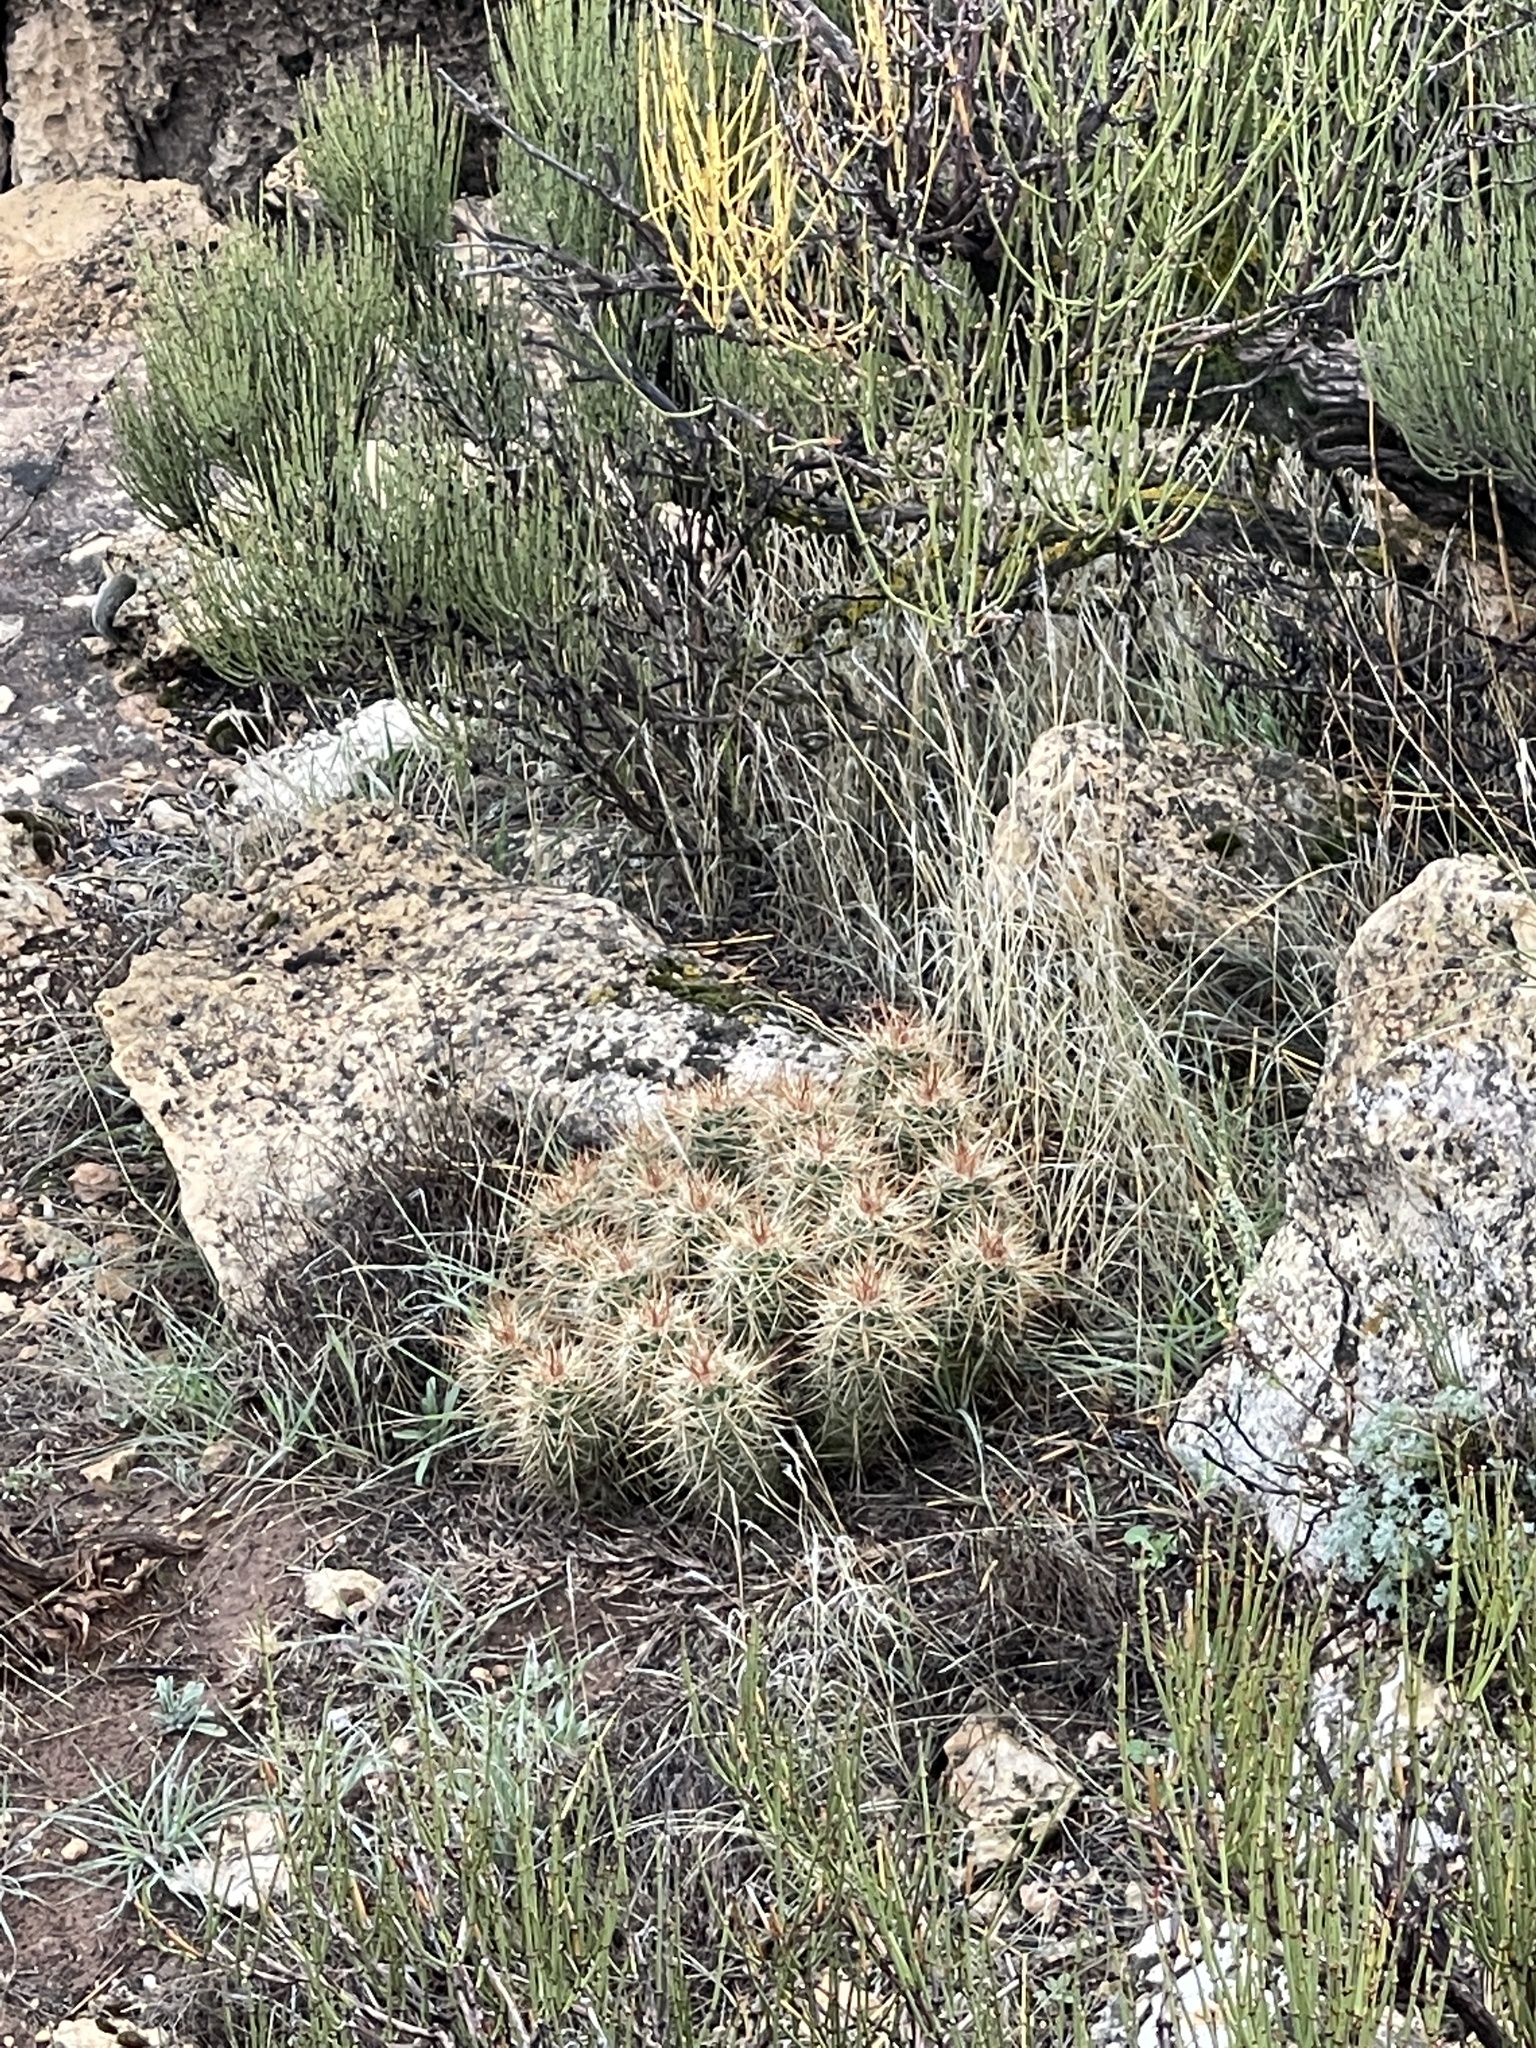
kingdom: Plantae
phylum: Tracheophyta
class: Magnoliopsida
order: Caryophyllales
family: Cactaceae
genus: Echinocereus
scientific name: Echinocereus triglochidiatus
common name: Claretcup hedgehog
